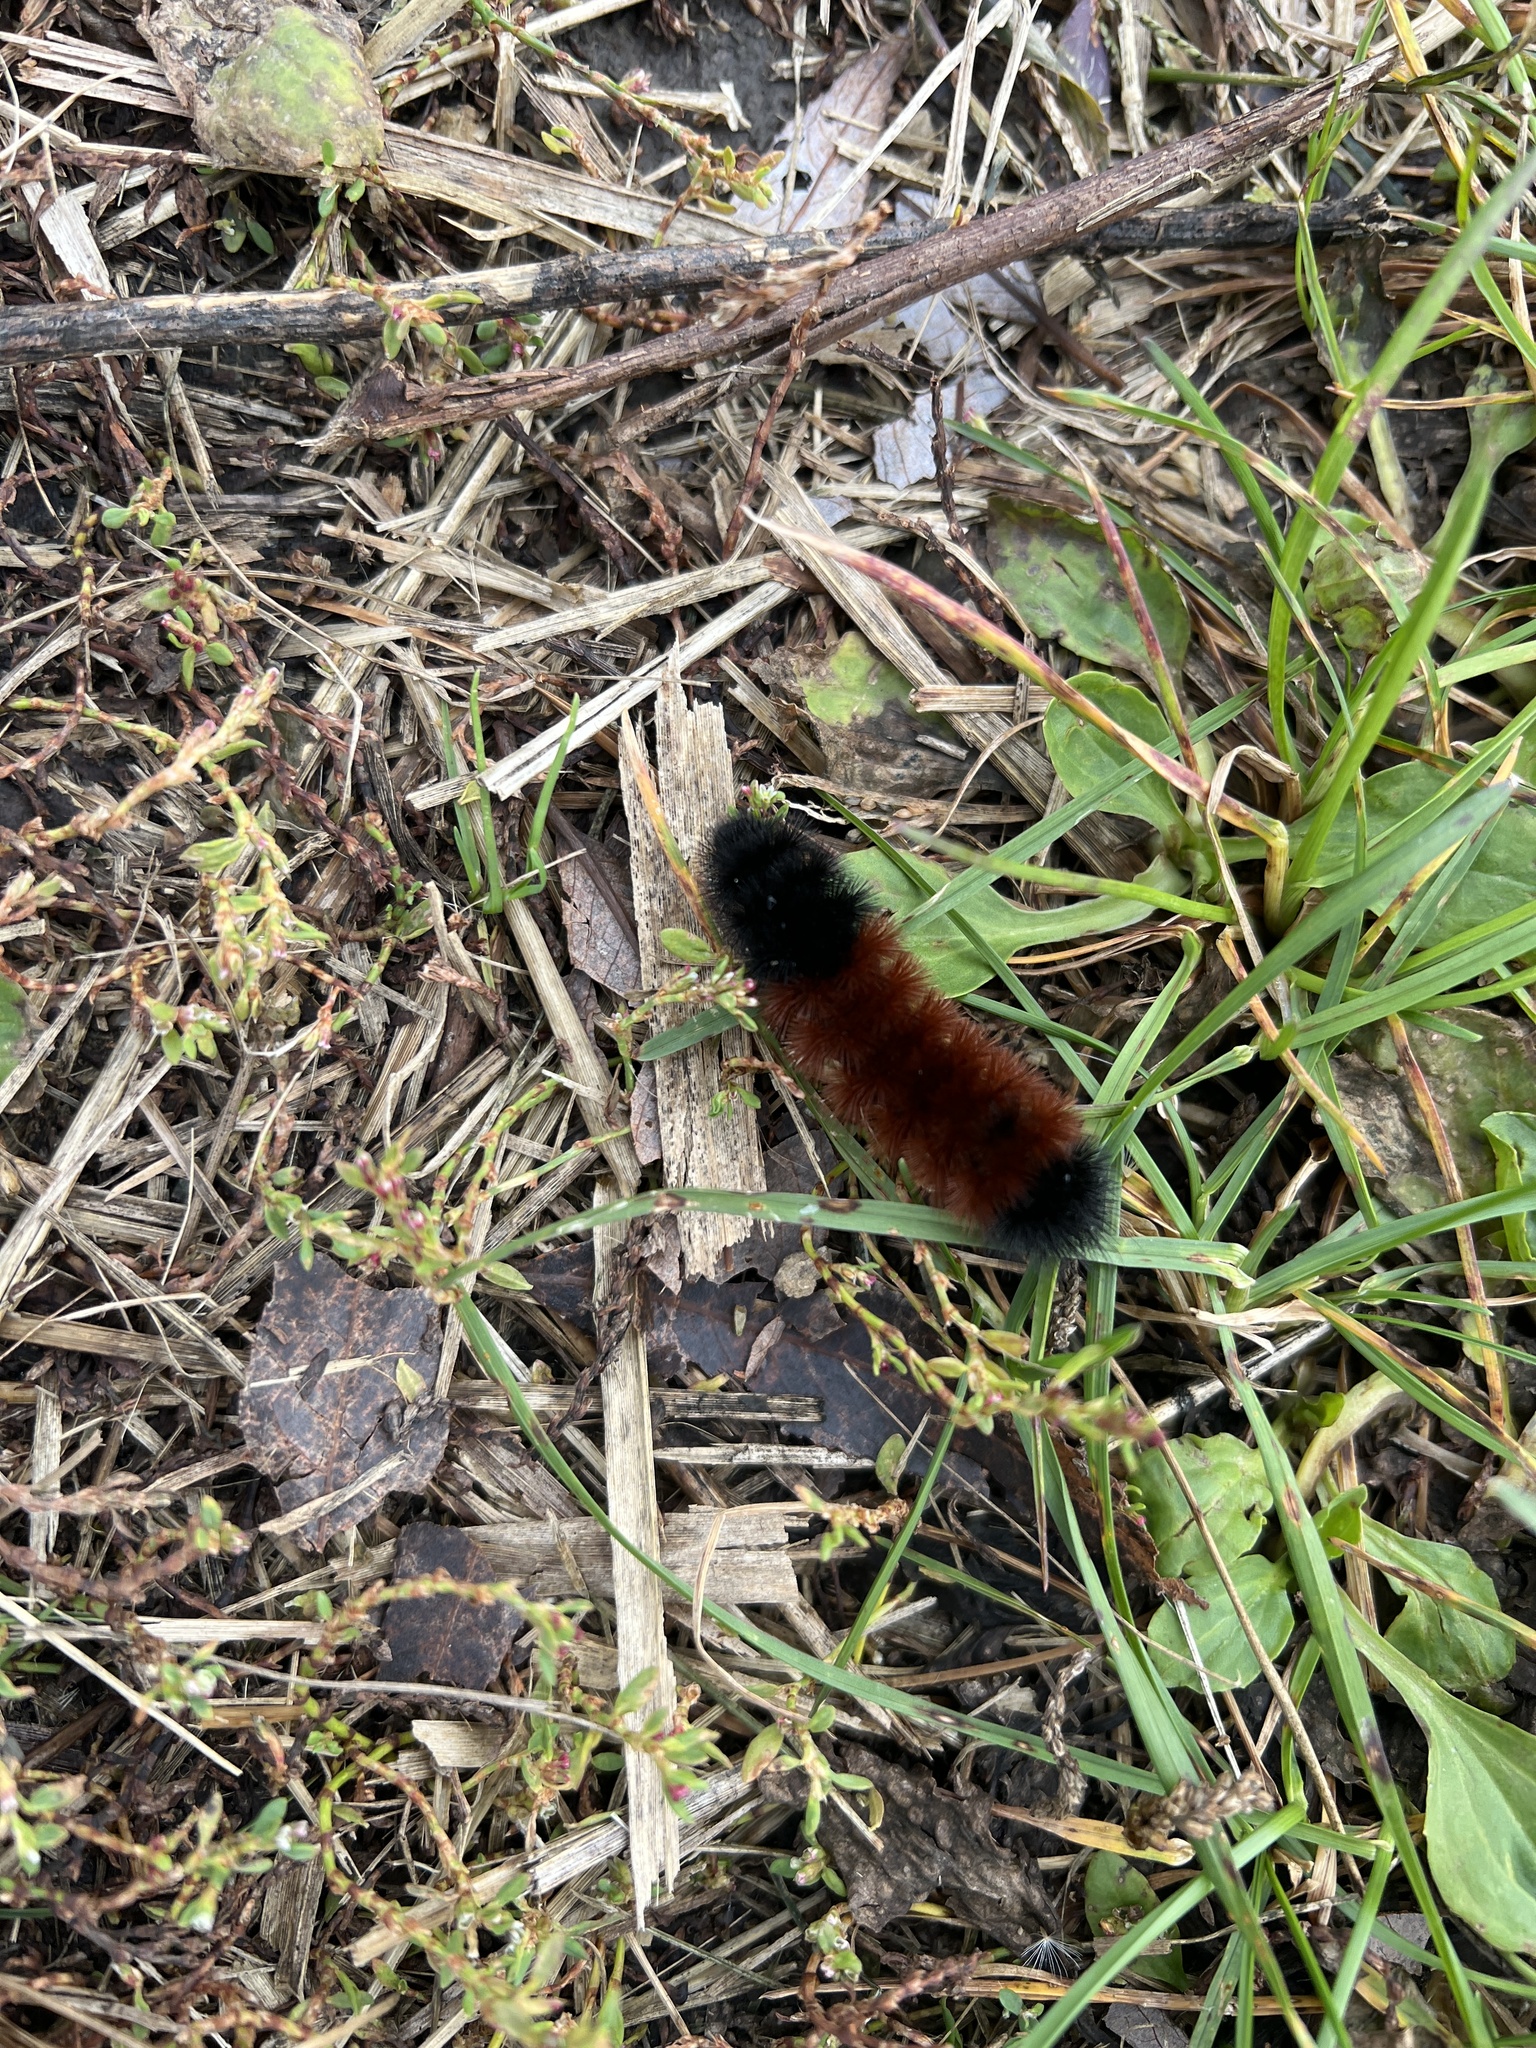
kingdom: Animalia
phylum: Arthropoda
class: Insecta
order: Lepidoptera
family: Erebidae
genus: Pyrrharctia
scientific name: Pyrrharctia isabella
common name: Isabella tiger moth
